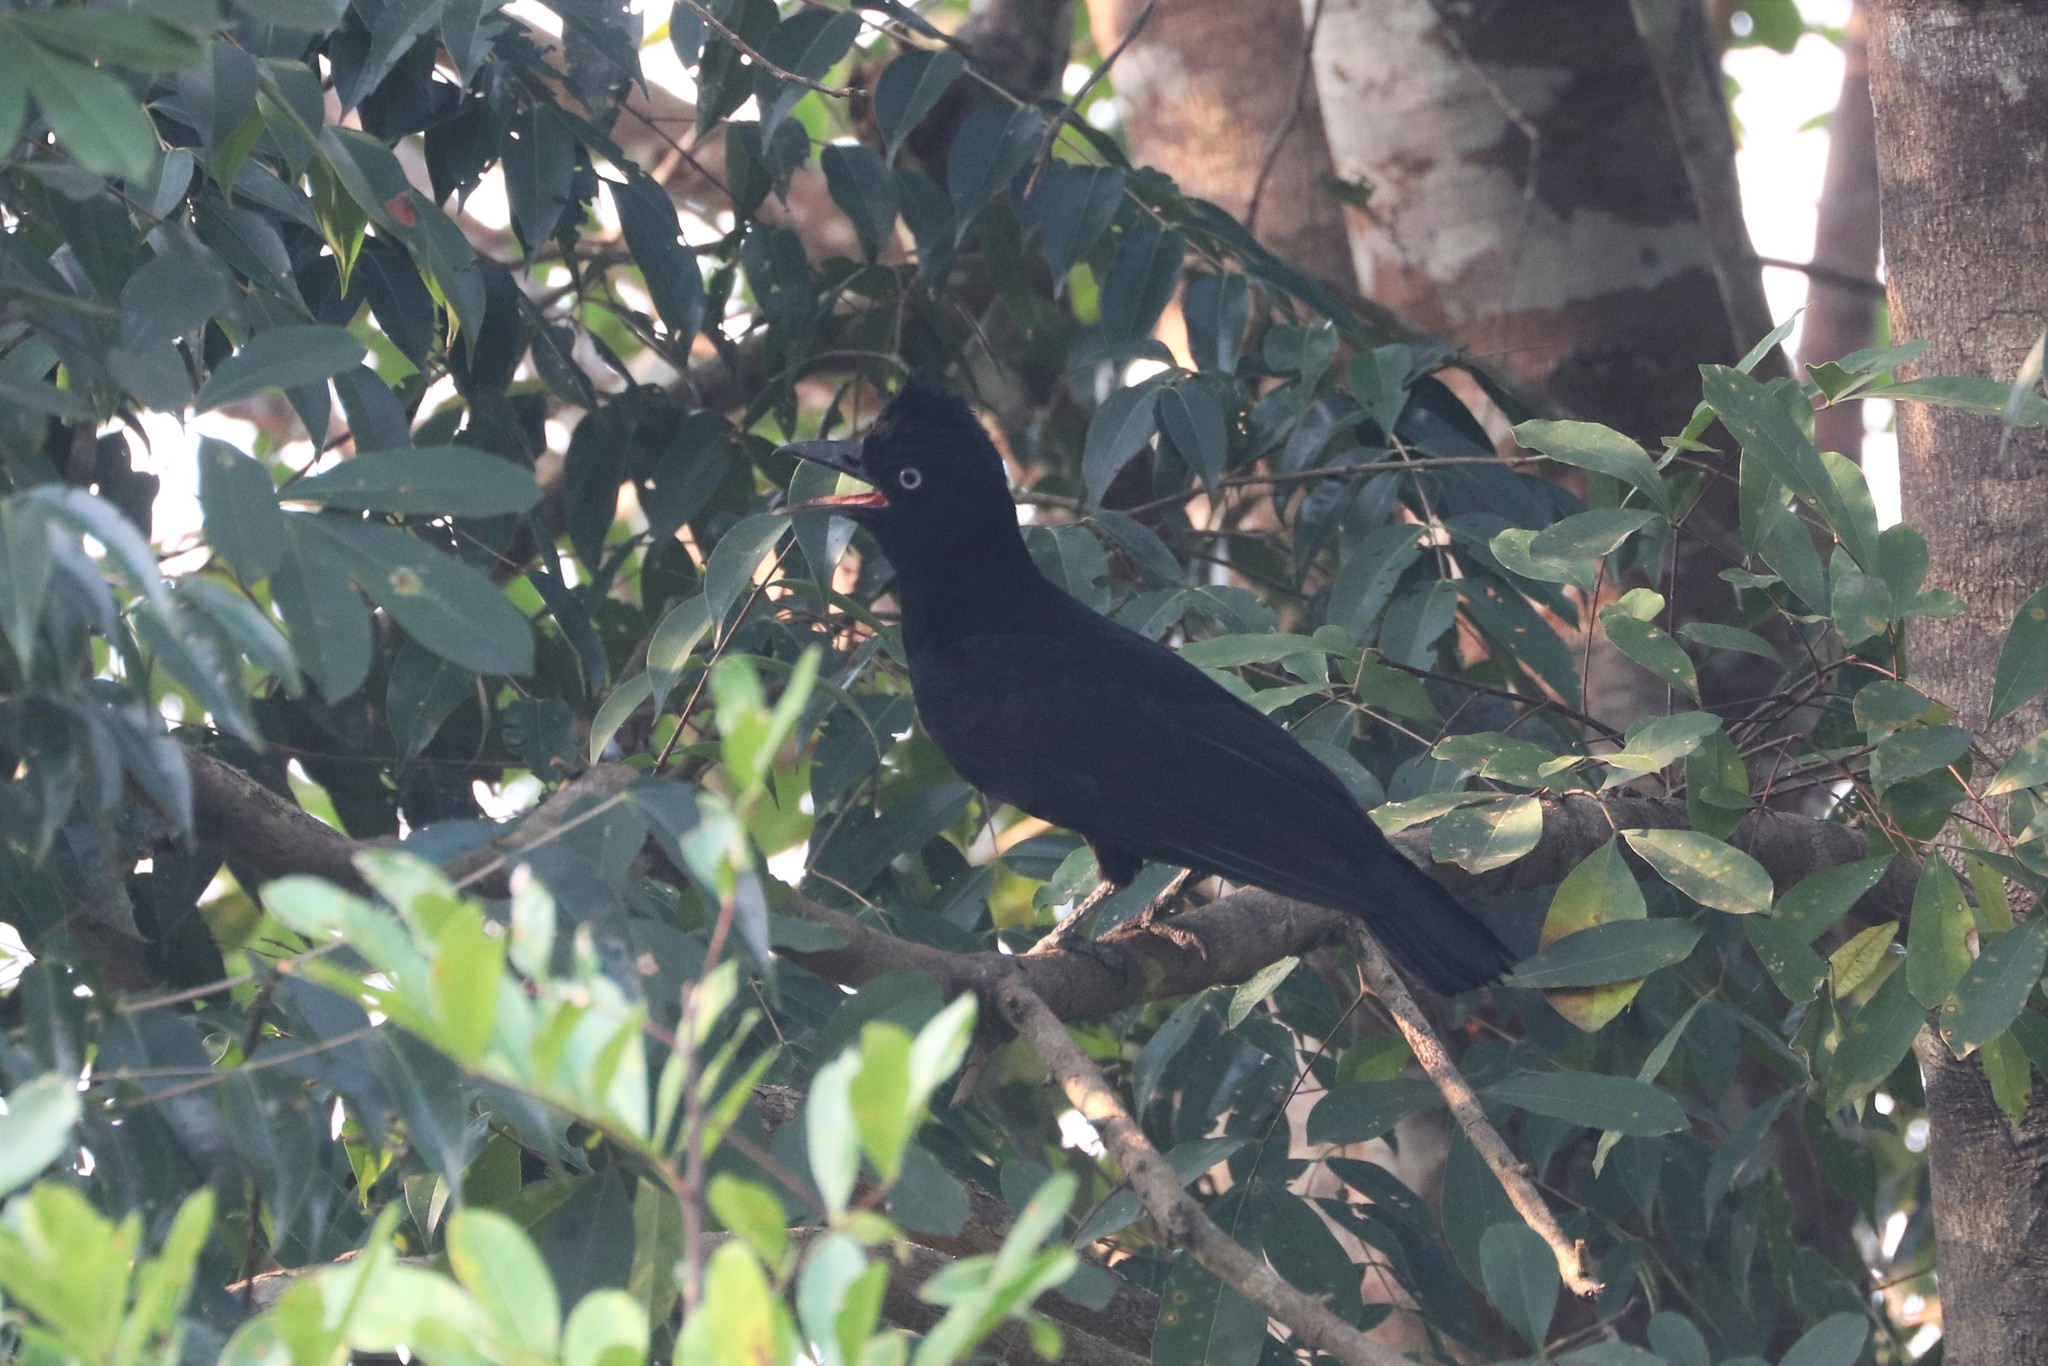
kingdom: Animalia
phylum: Chordata
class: Aves
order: Passeriformes
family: Cotingidae
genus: Cephalopterus
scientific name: Cephalopterus ornatus
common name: Amazonian umbrellabird
